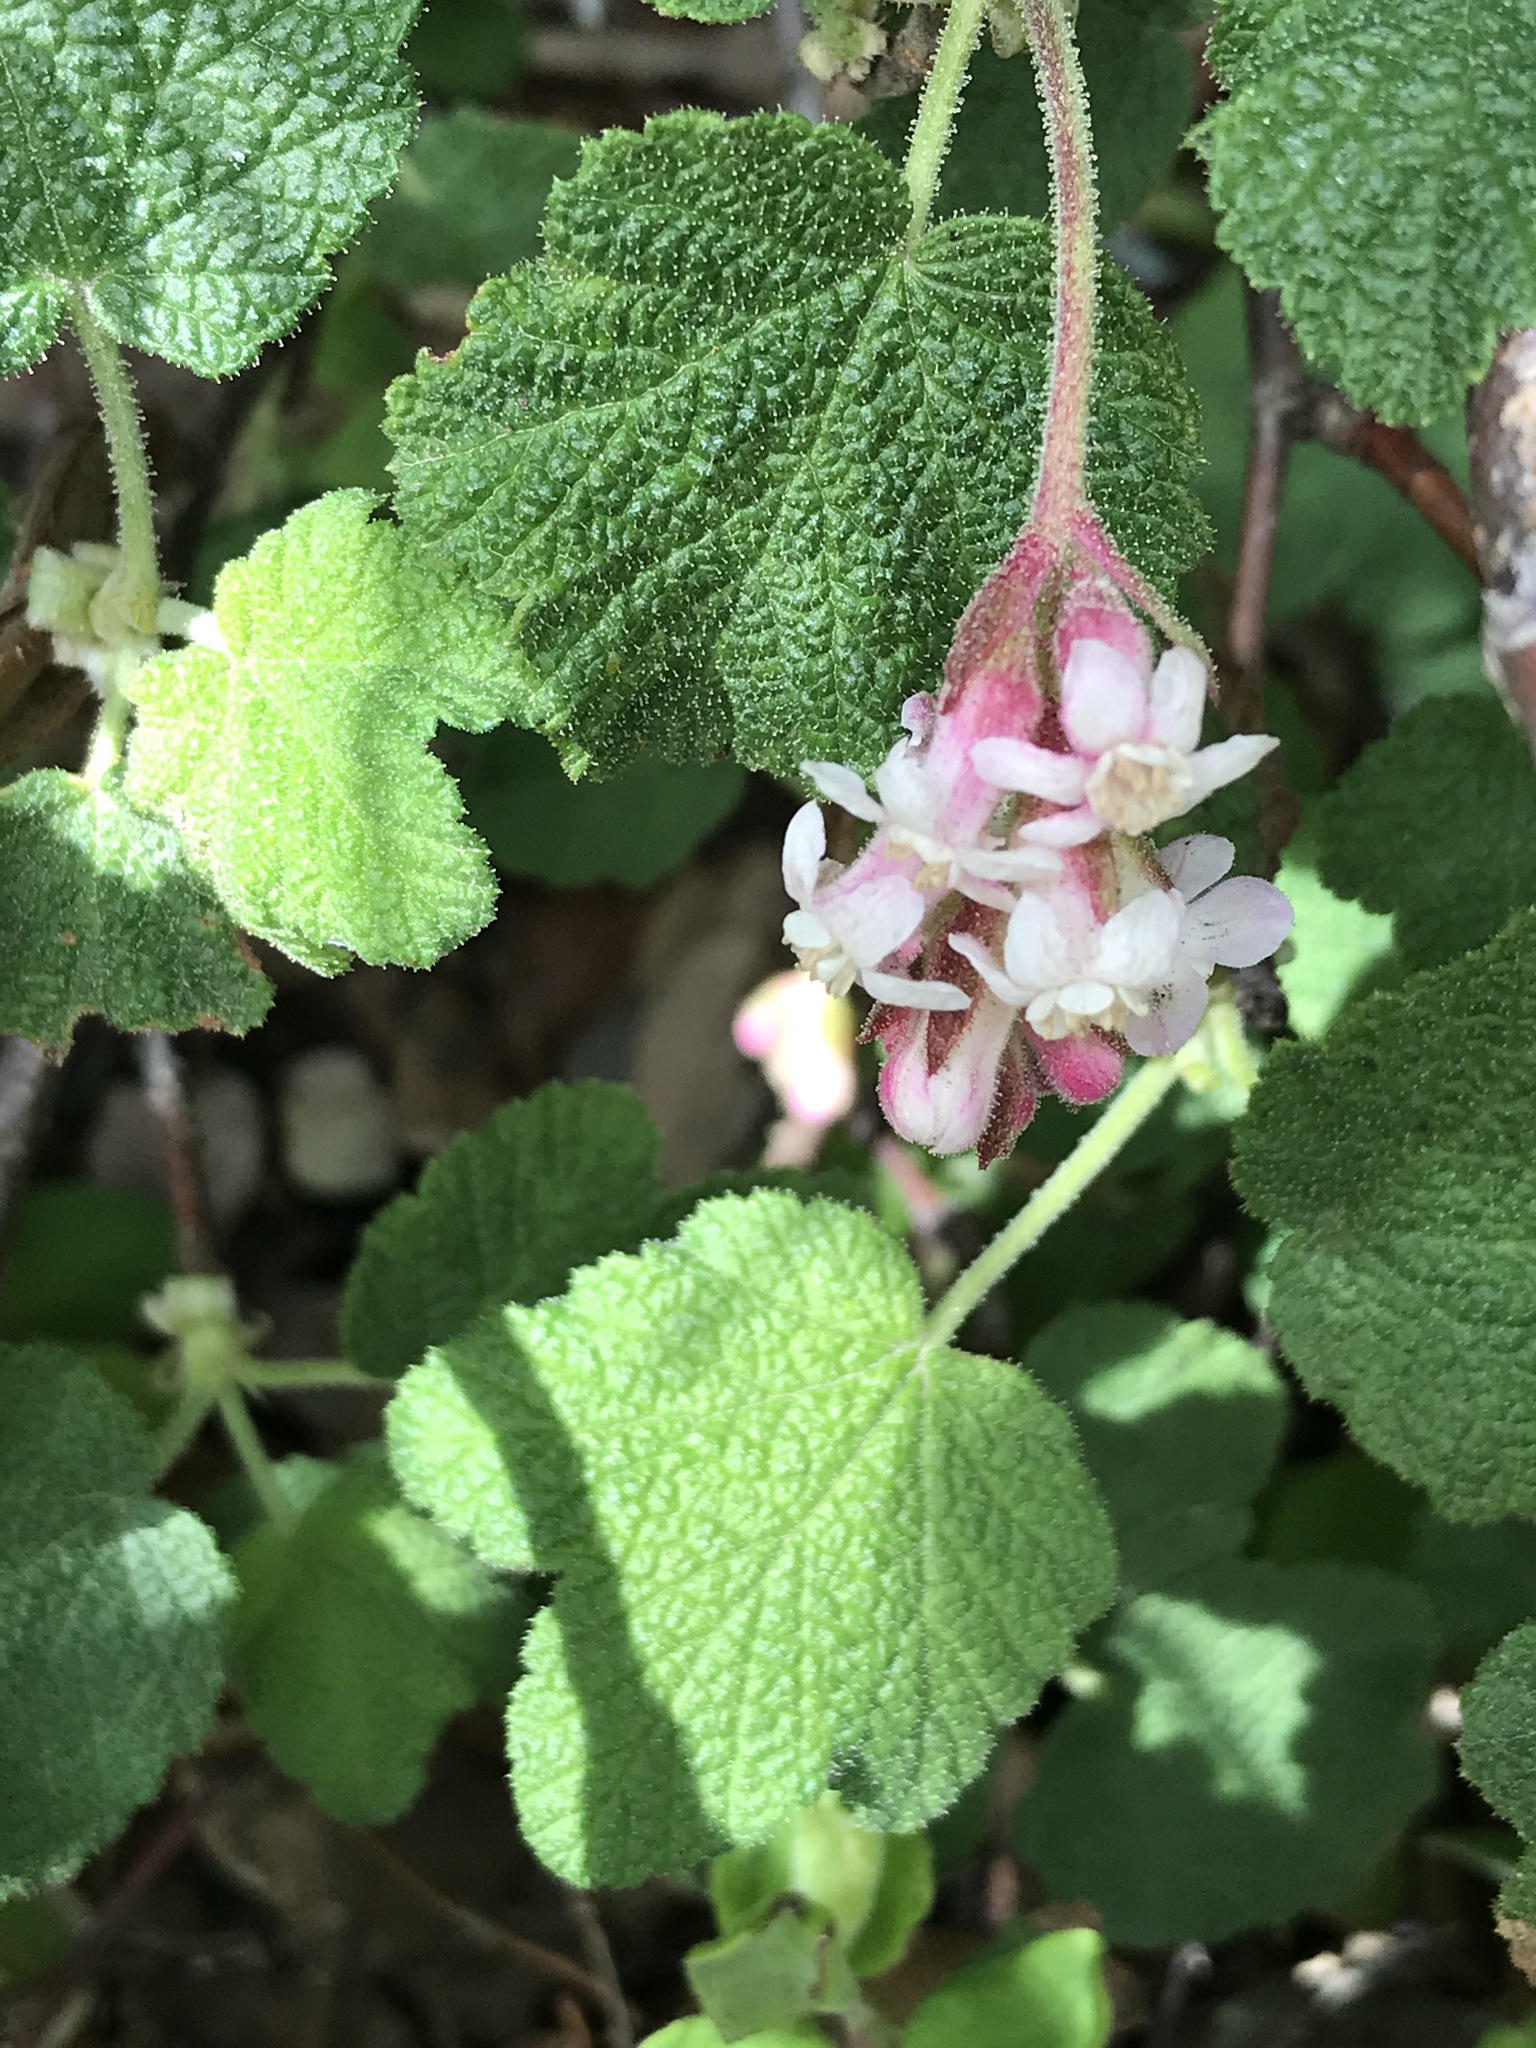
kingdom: Plantae
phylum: Tracheophyta
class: Magnoliopsida
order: Saxifragales
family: Grossulariaceae
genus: Ribes
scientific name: Ribes malvaceum
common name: Chaparral currant
